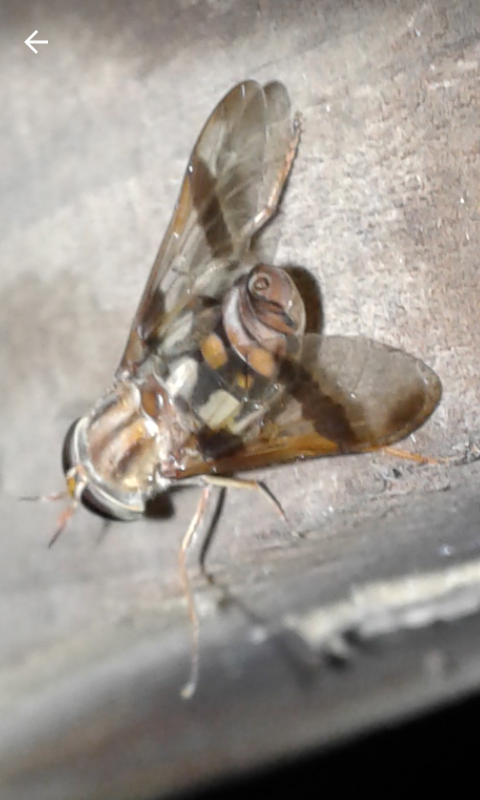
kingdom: Animalia
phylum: Arthropoda
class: Insecta
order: Diptera
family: Tabanidae
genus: Tabanocella
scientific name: Tabanocella zoulouensis
